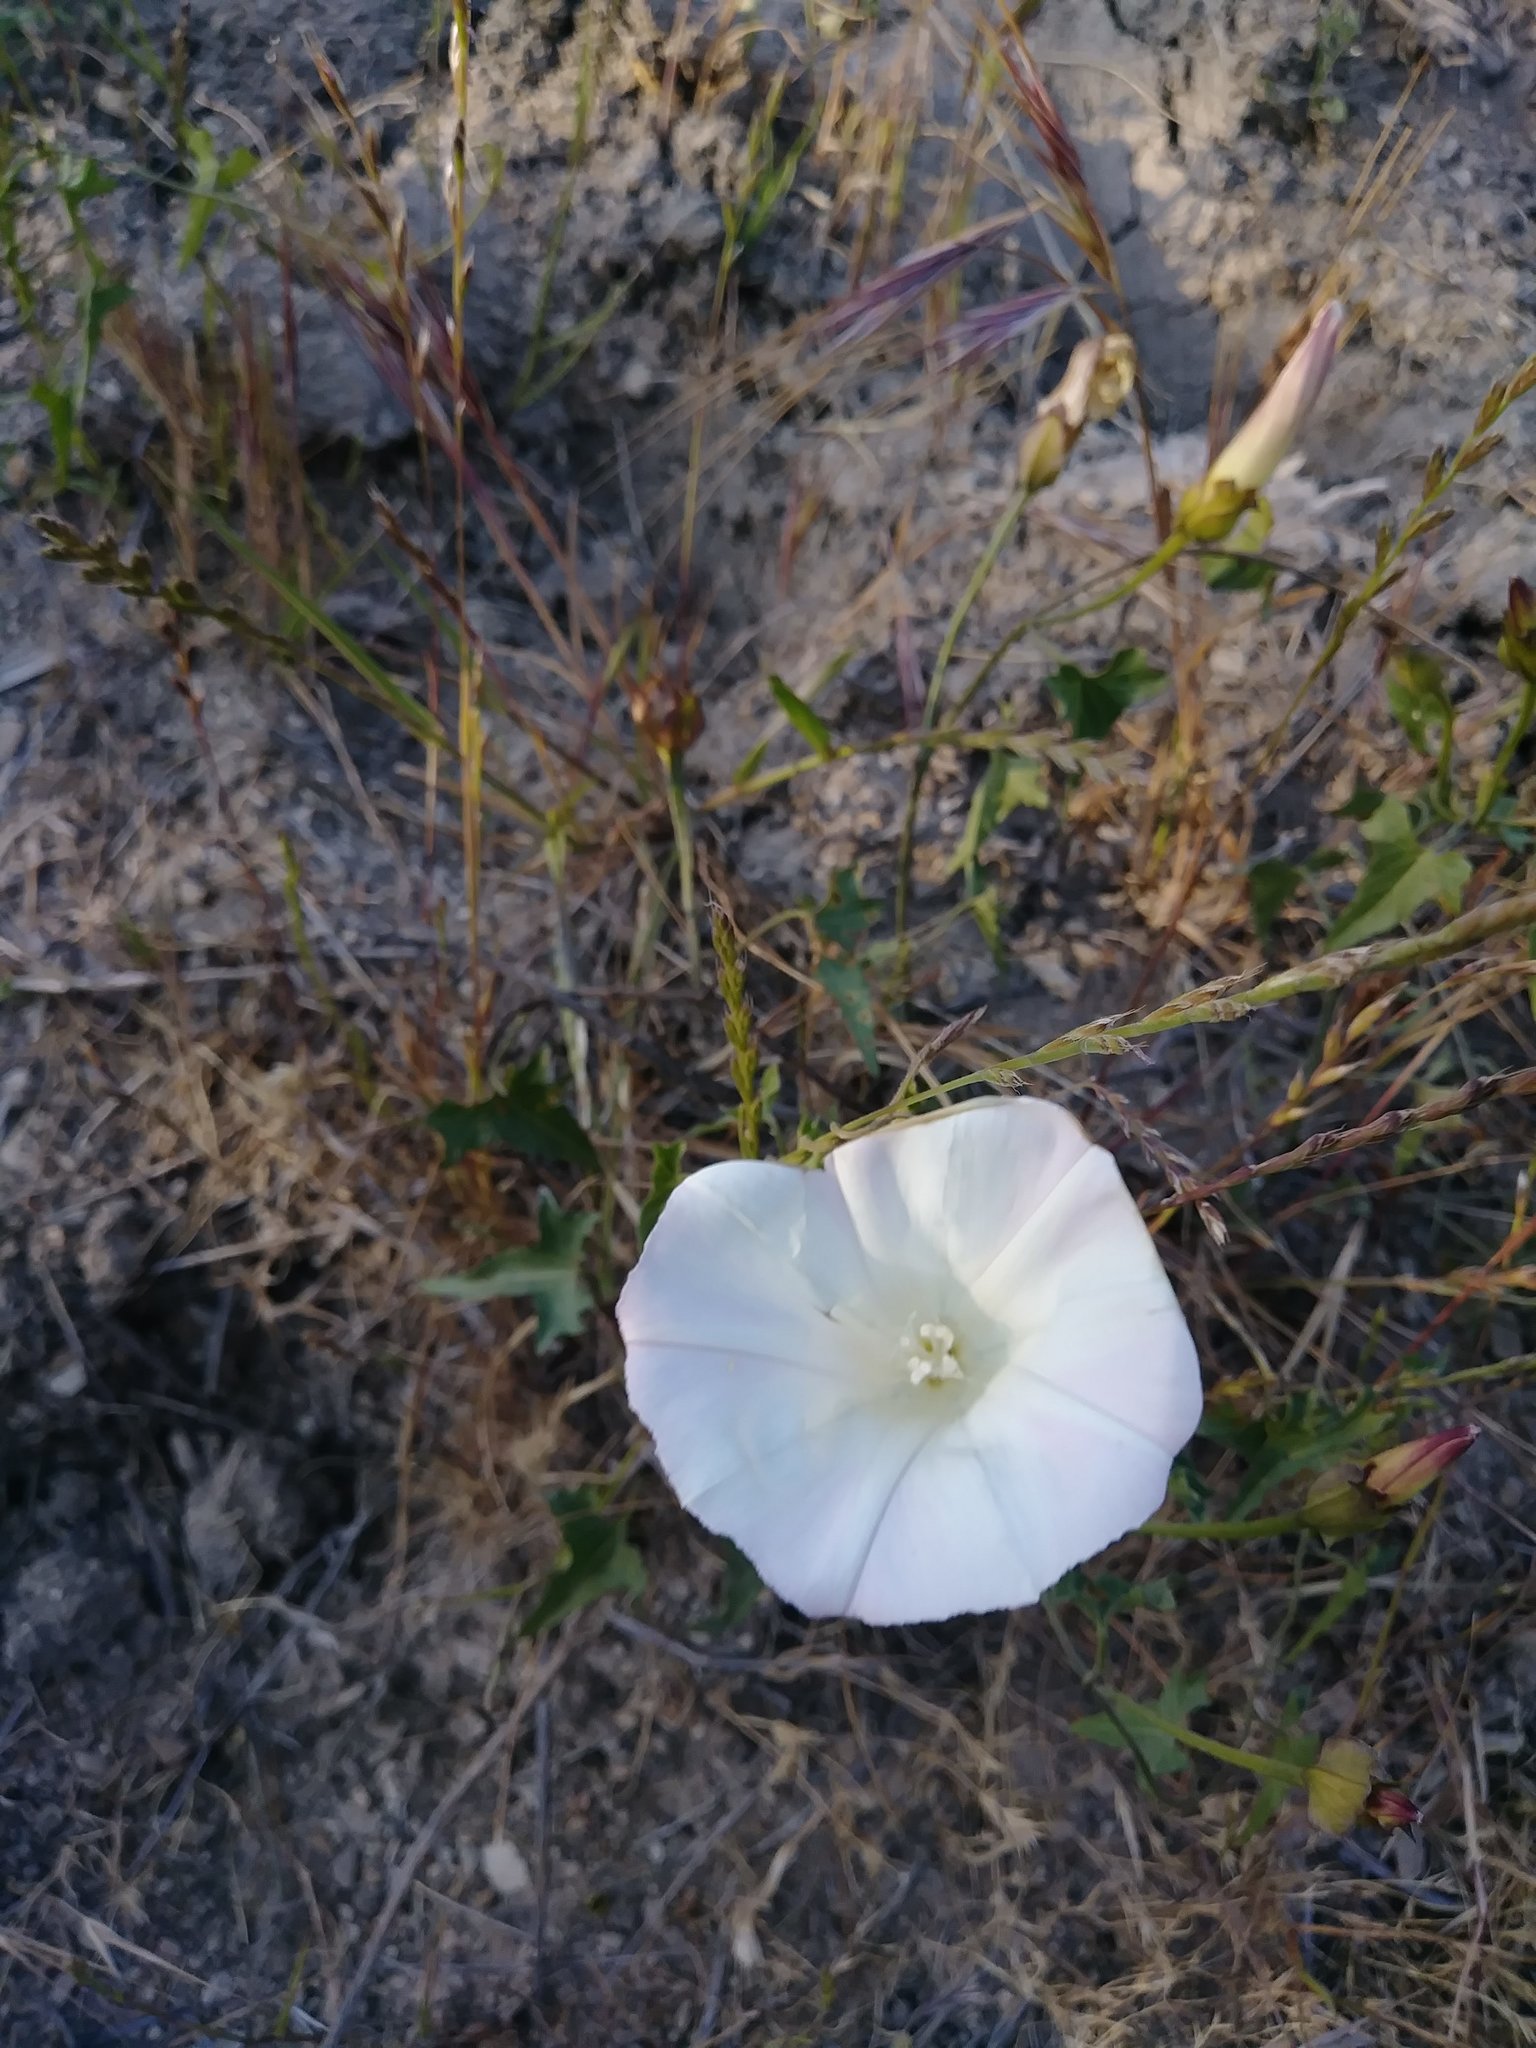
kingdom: Plantae
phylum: Tracheophyta
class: Magnoliopsida
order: Solanales
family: Convolvulaceae
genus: Calystegia
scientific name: Calystegia macrostegia
